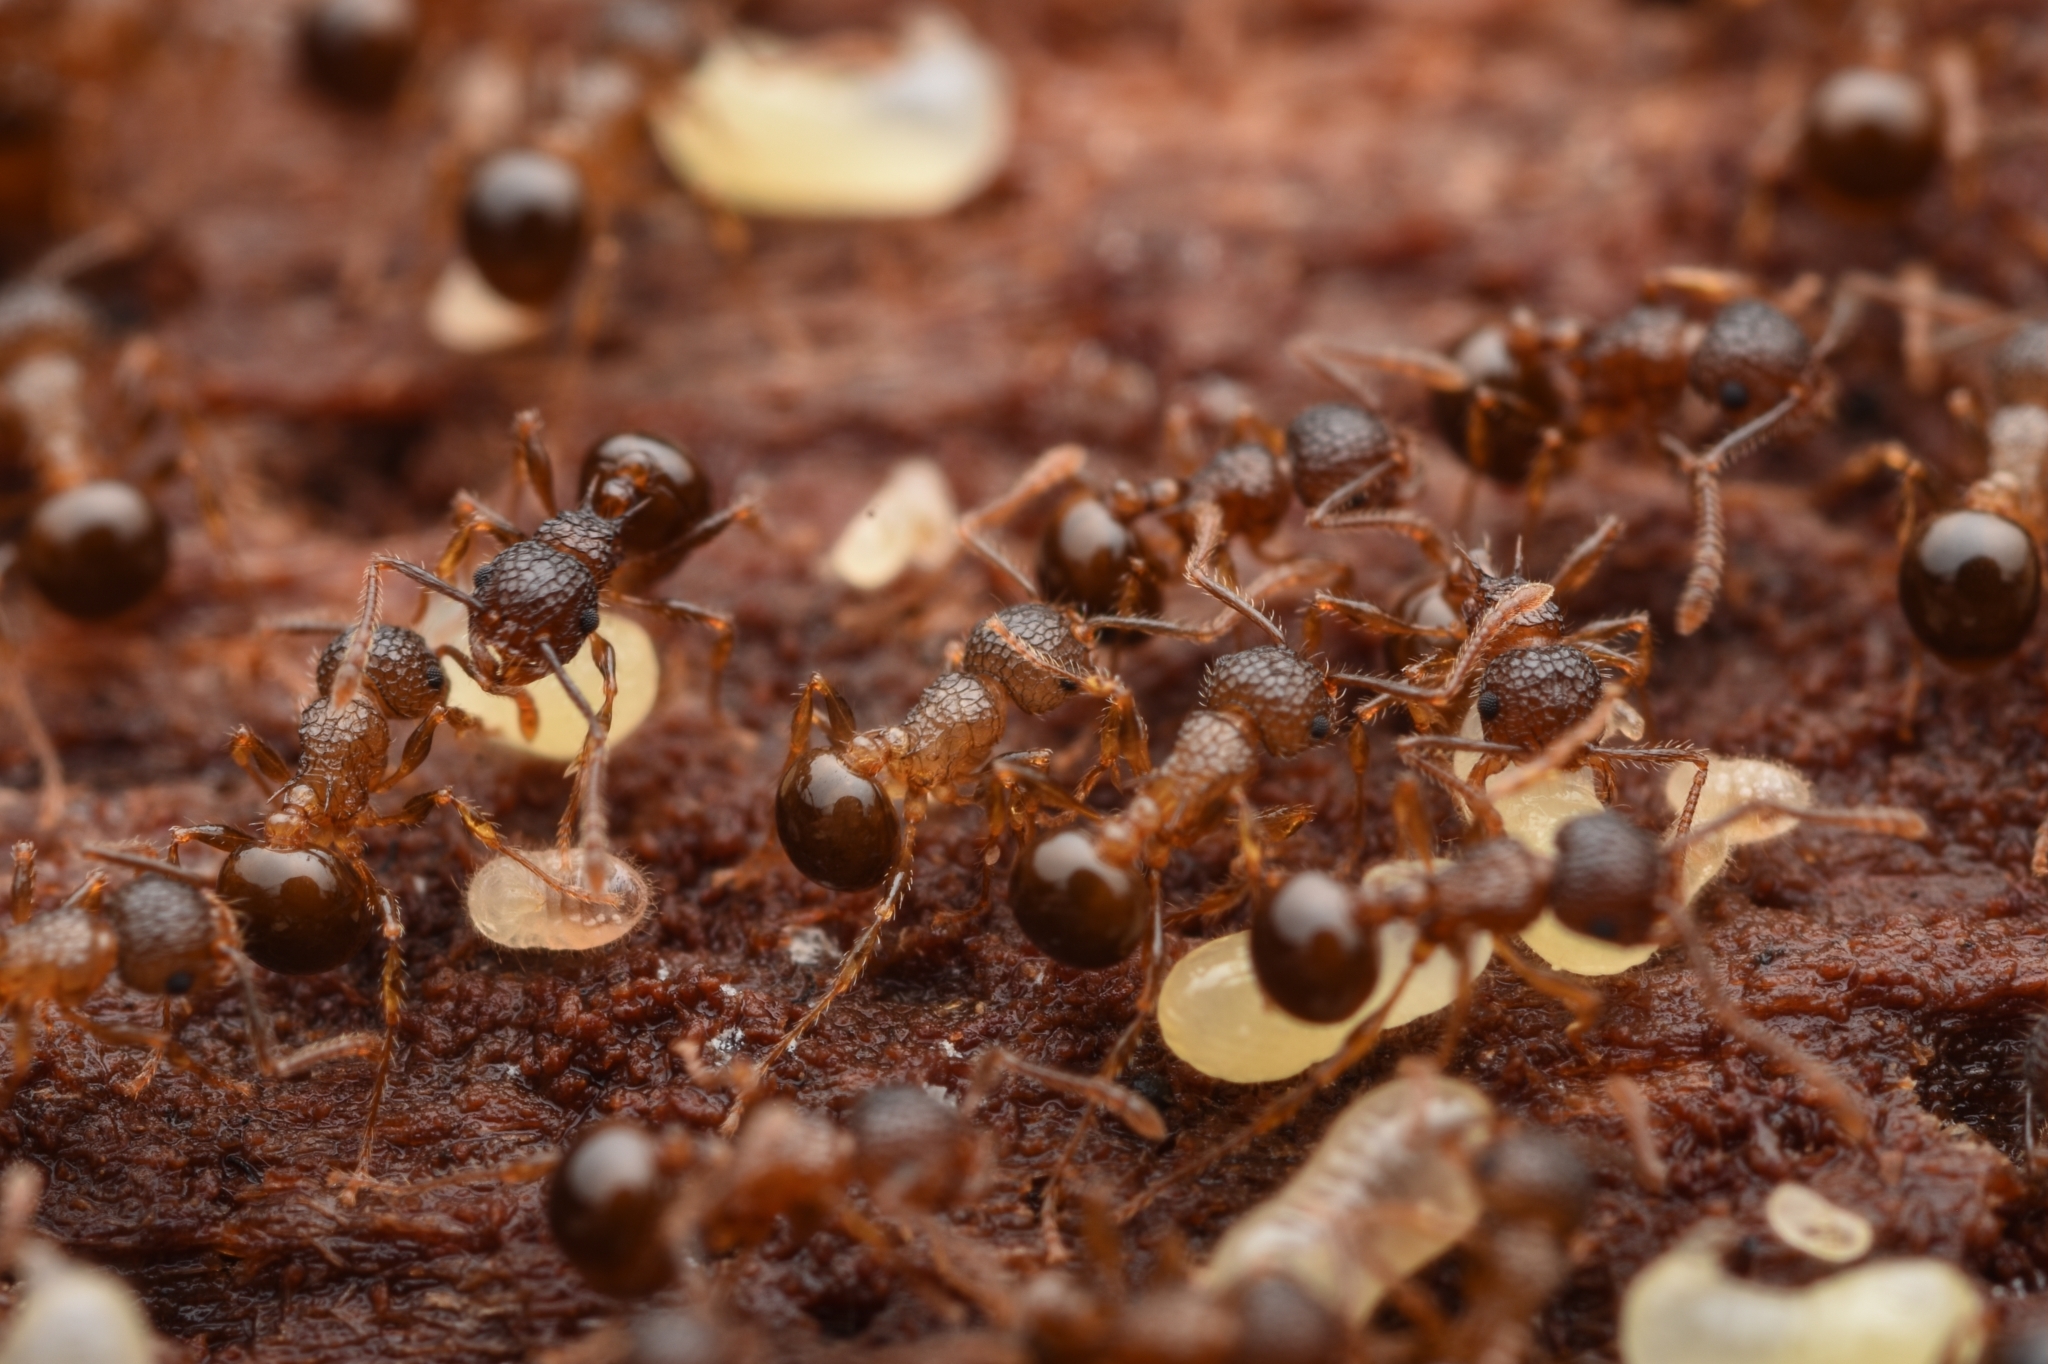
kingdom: Animalia
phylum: Arthropoda
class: Insecta
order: Hymenoptera
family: Formicidae
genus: Pristomyrmex
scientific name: Pristomyrmex punctatus
